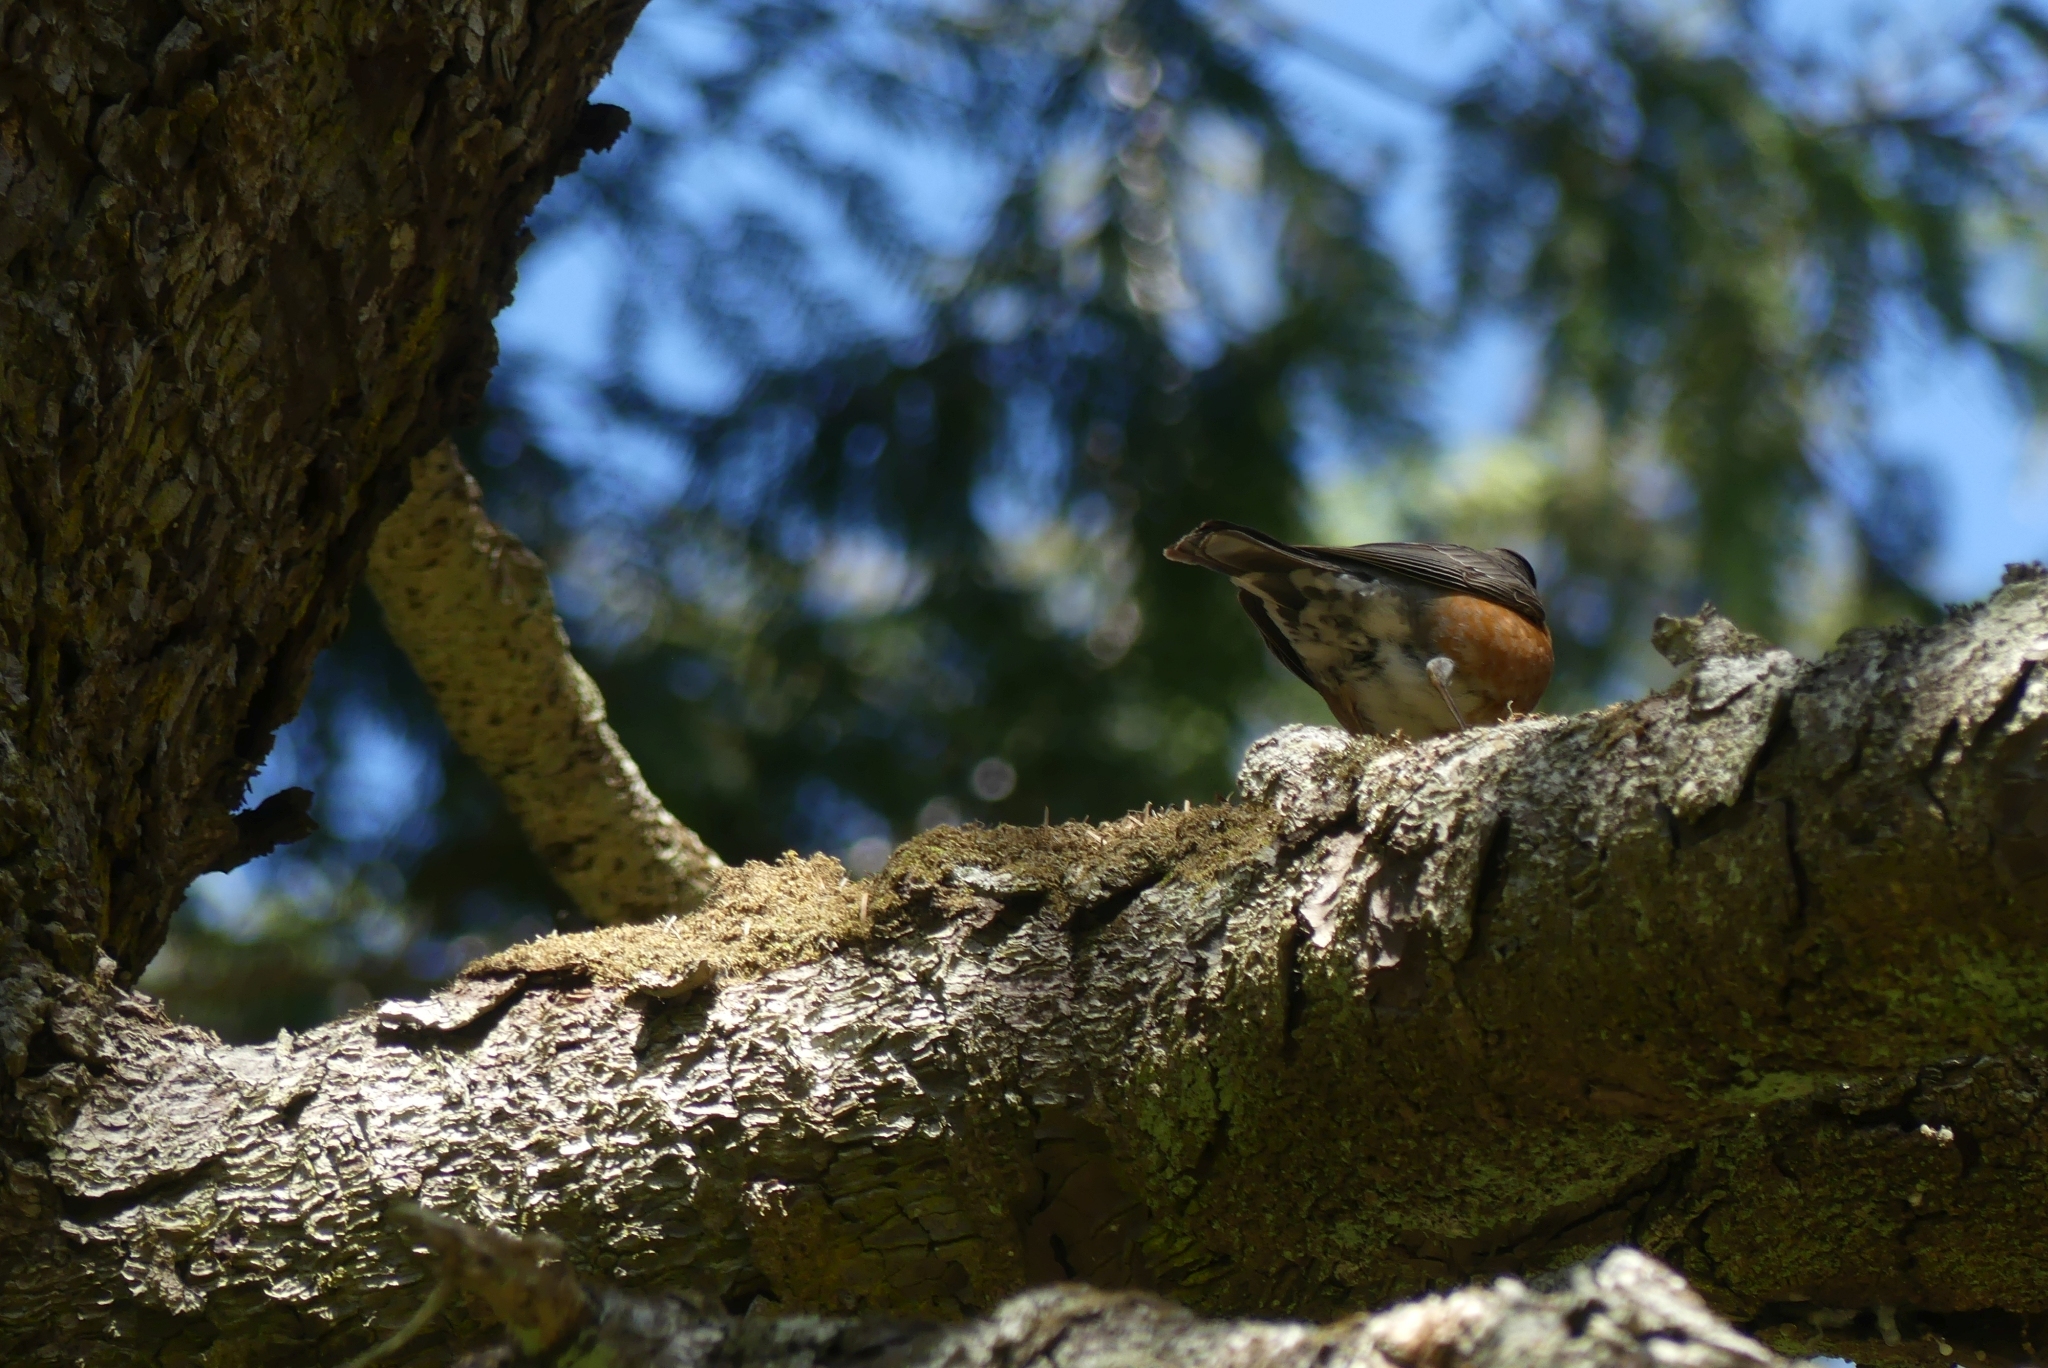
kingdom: Animalia
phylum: Chordata
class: Aves
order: Passeriformes
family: Turdidae
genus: Turdus
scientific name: Turdus migratorius
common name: American robin
